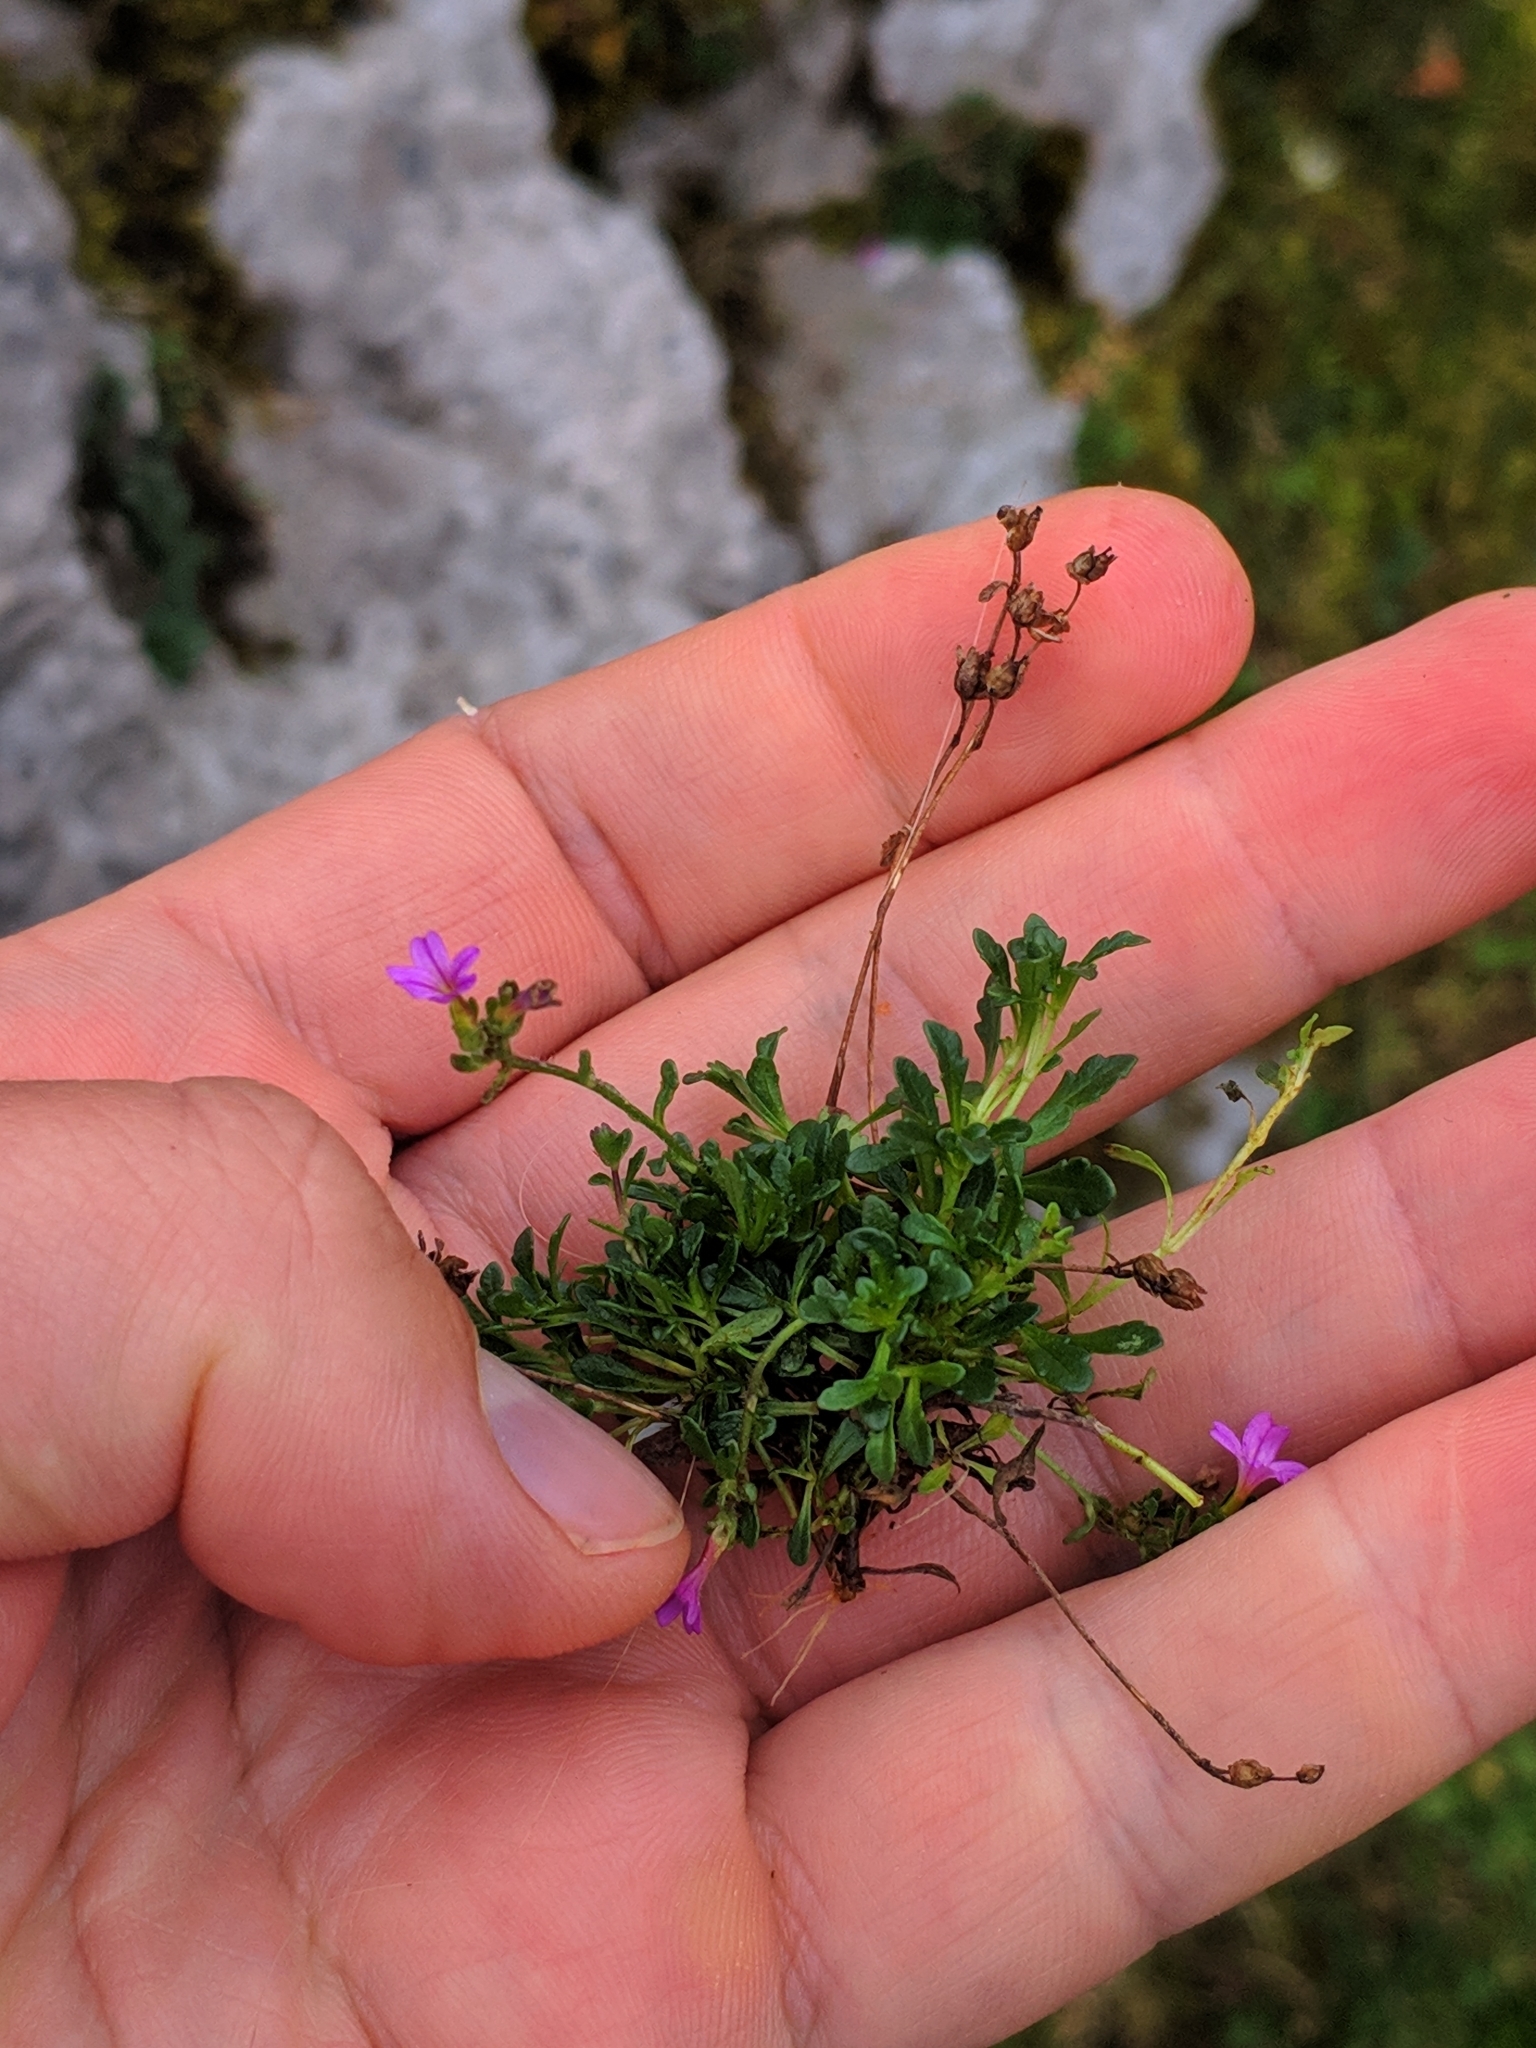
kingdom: Plantae
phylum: Tracheophyta
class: Magnoliopsida
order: Lamiales
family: Plantaginaceae
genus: Erinus
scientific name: Erinus alpinus
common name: Fairy foxglove
